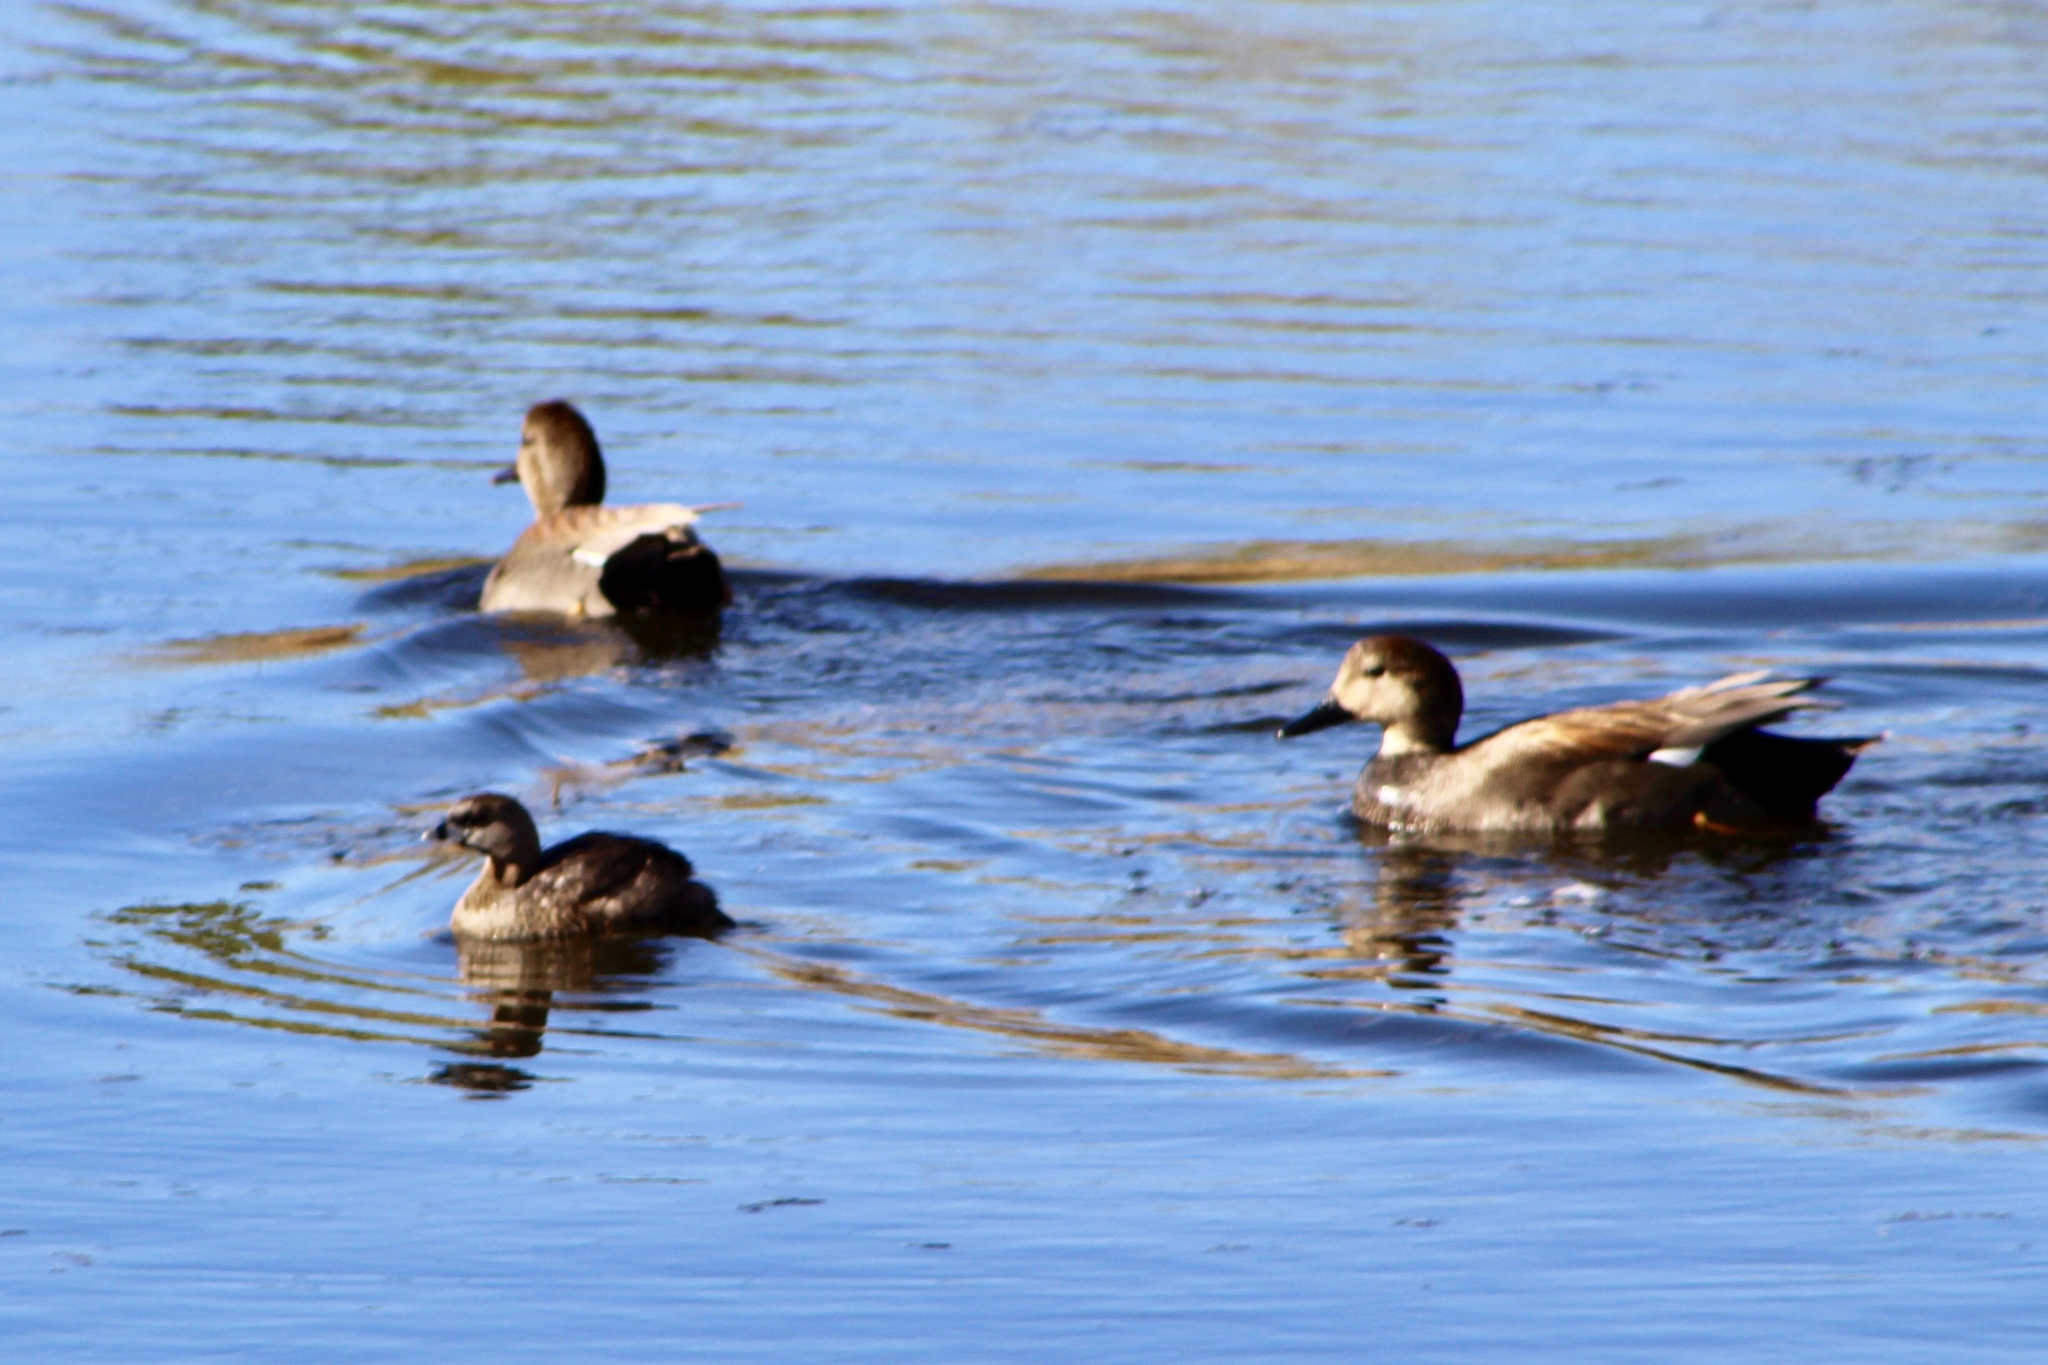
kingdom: Animalia
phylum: Chordata
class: Aves
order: Podicipediformes
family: Podicipedidae
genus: Podilymbus
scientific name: Podilymbus podiceps
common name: Pied-billed grebe
